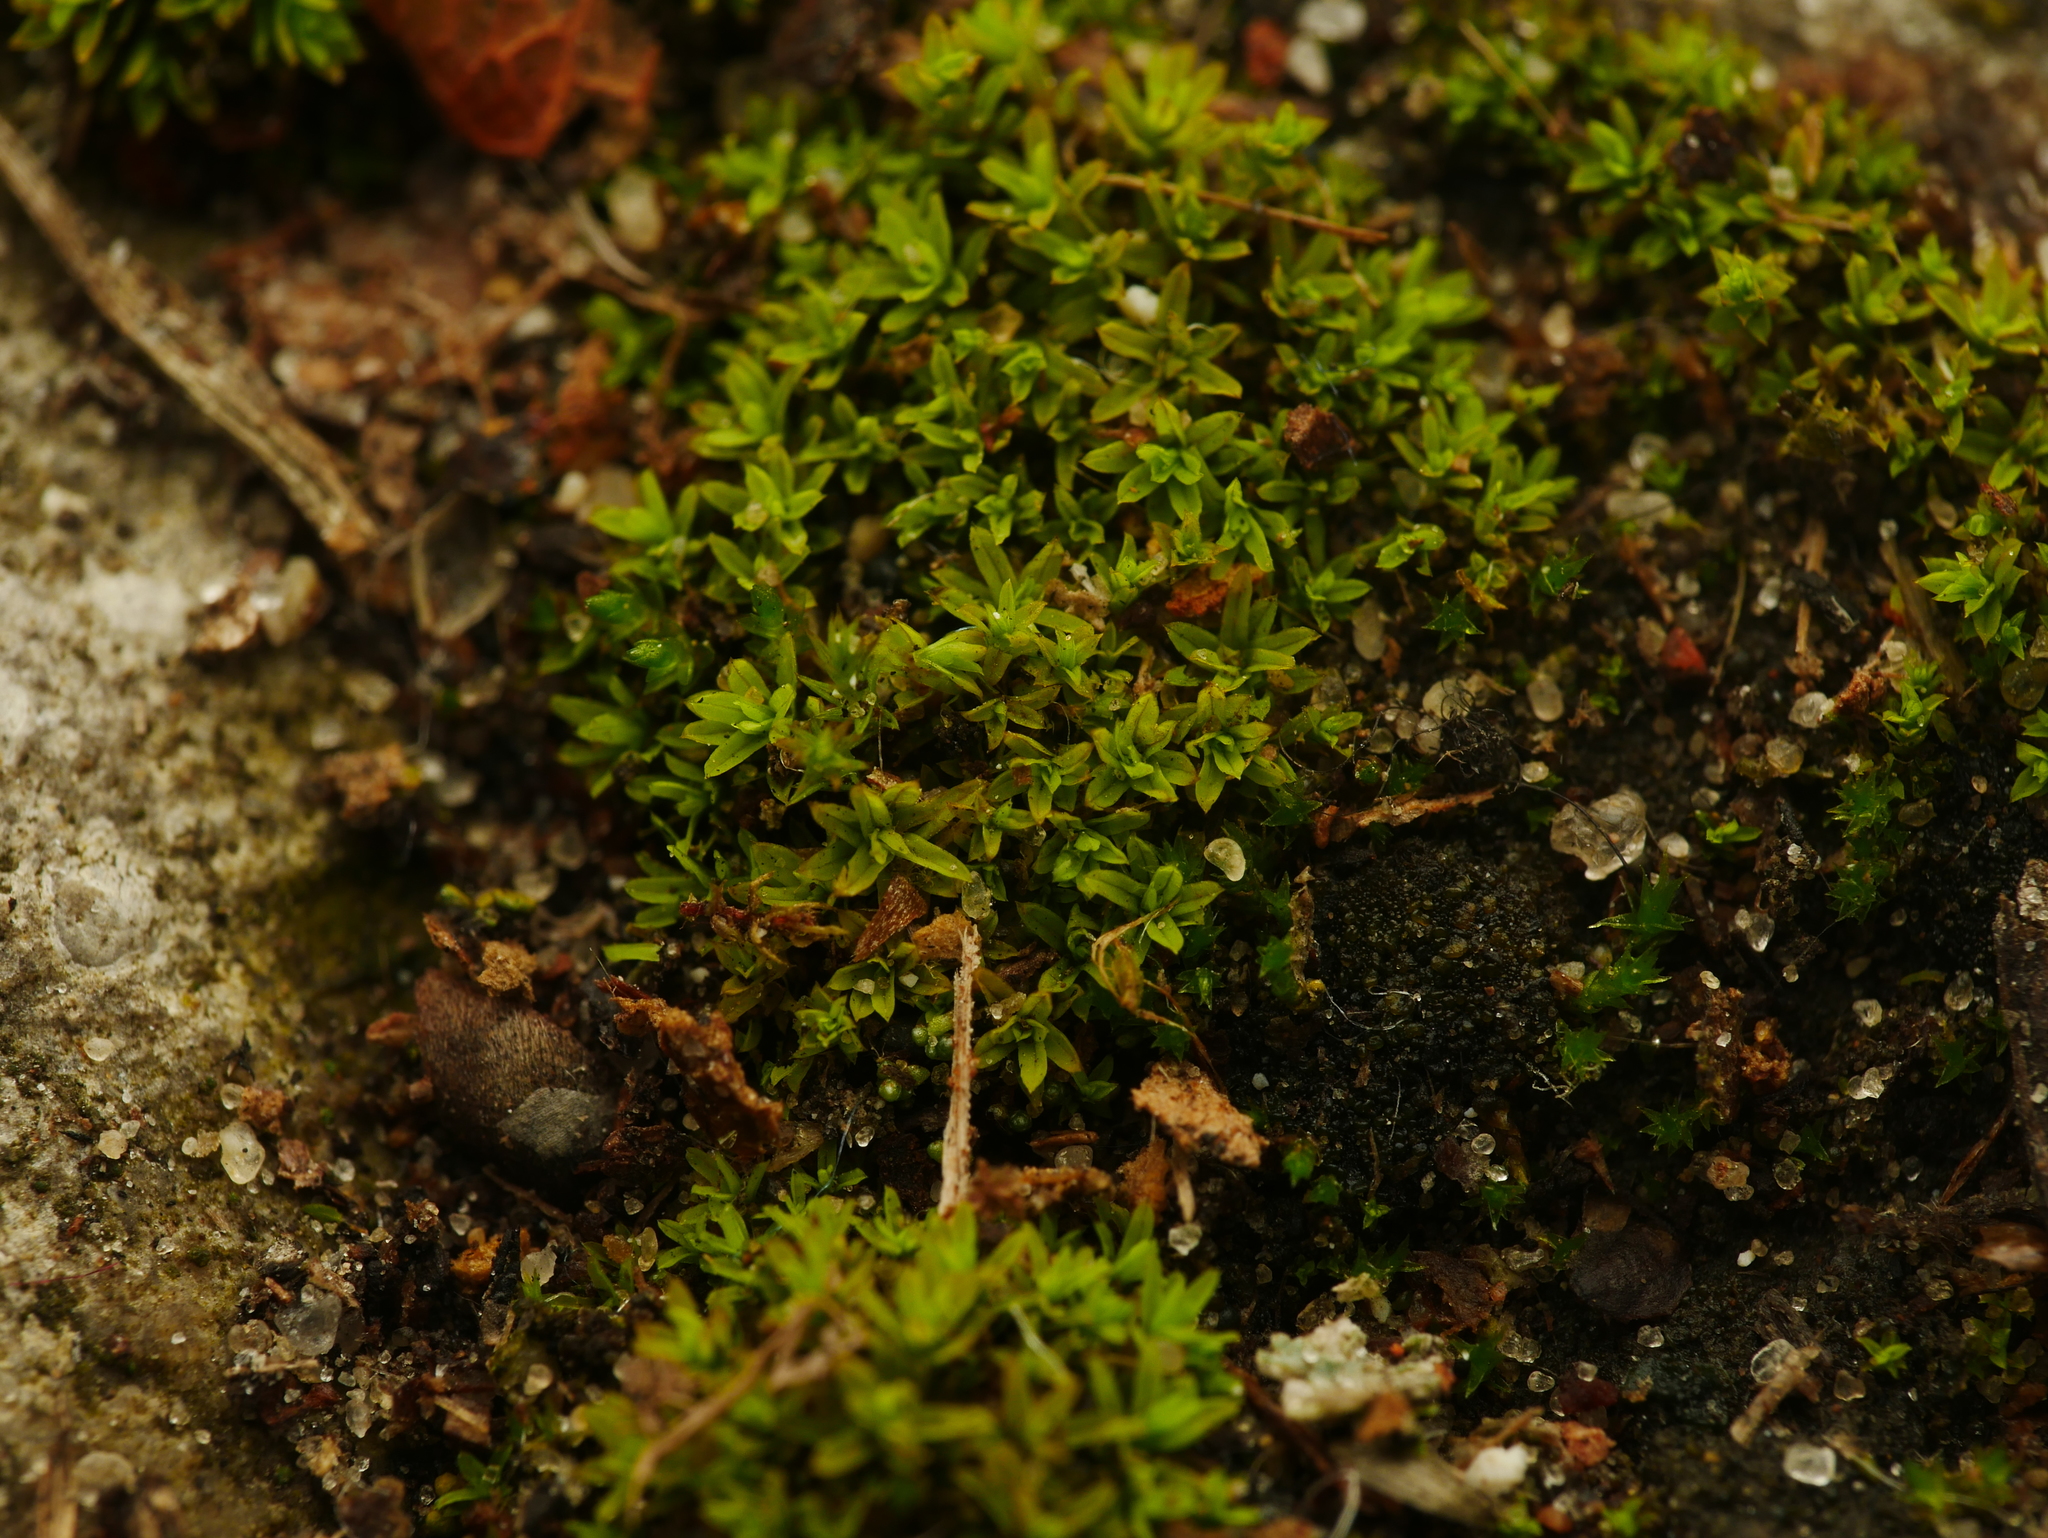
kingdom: Plantae
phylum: Bryophyta
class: Bryopsida
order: Pottiales
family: Pottiaceae
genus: Barbula
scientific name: Barbula unguiculata
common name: Prickly beard moss
